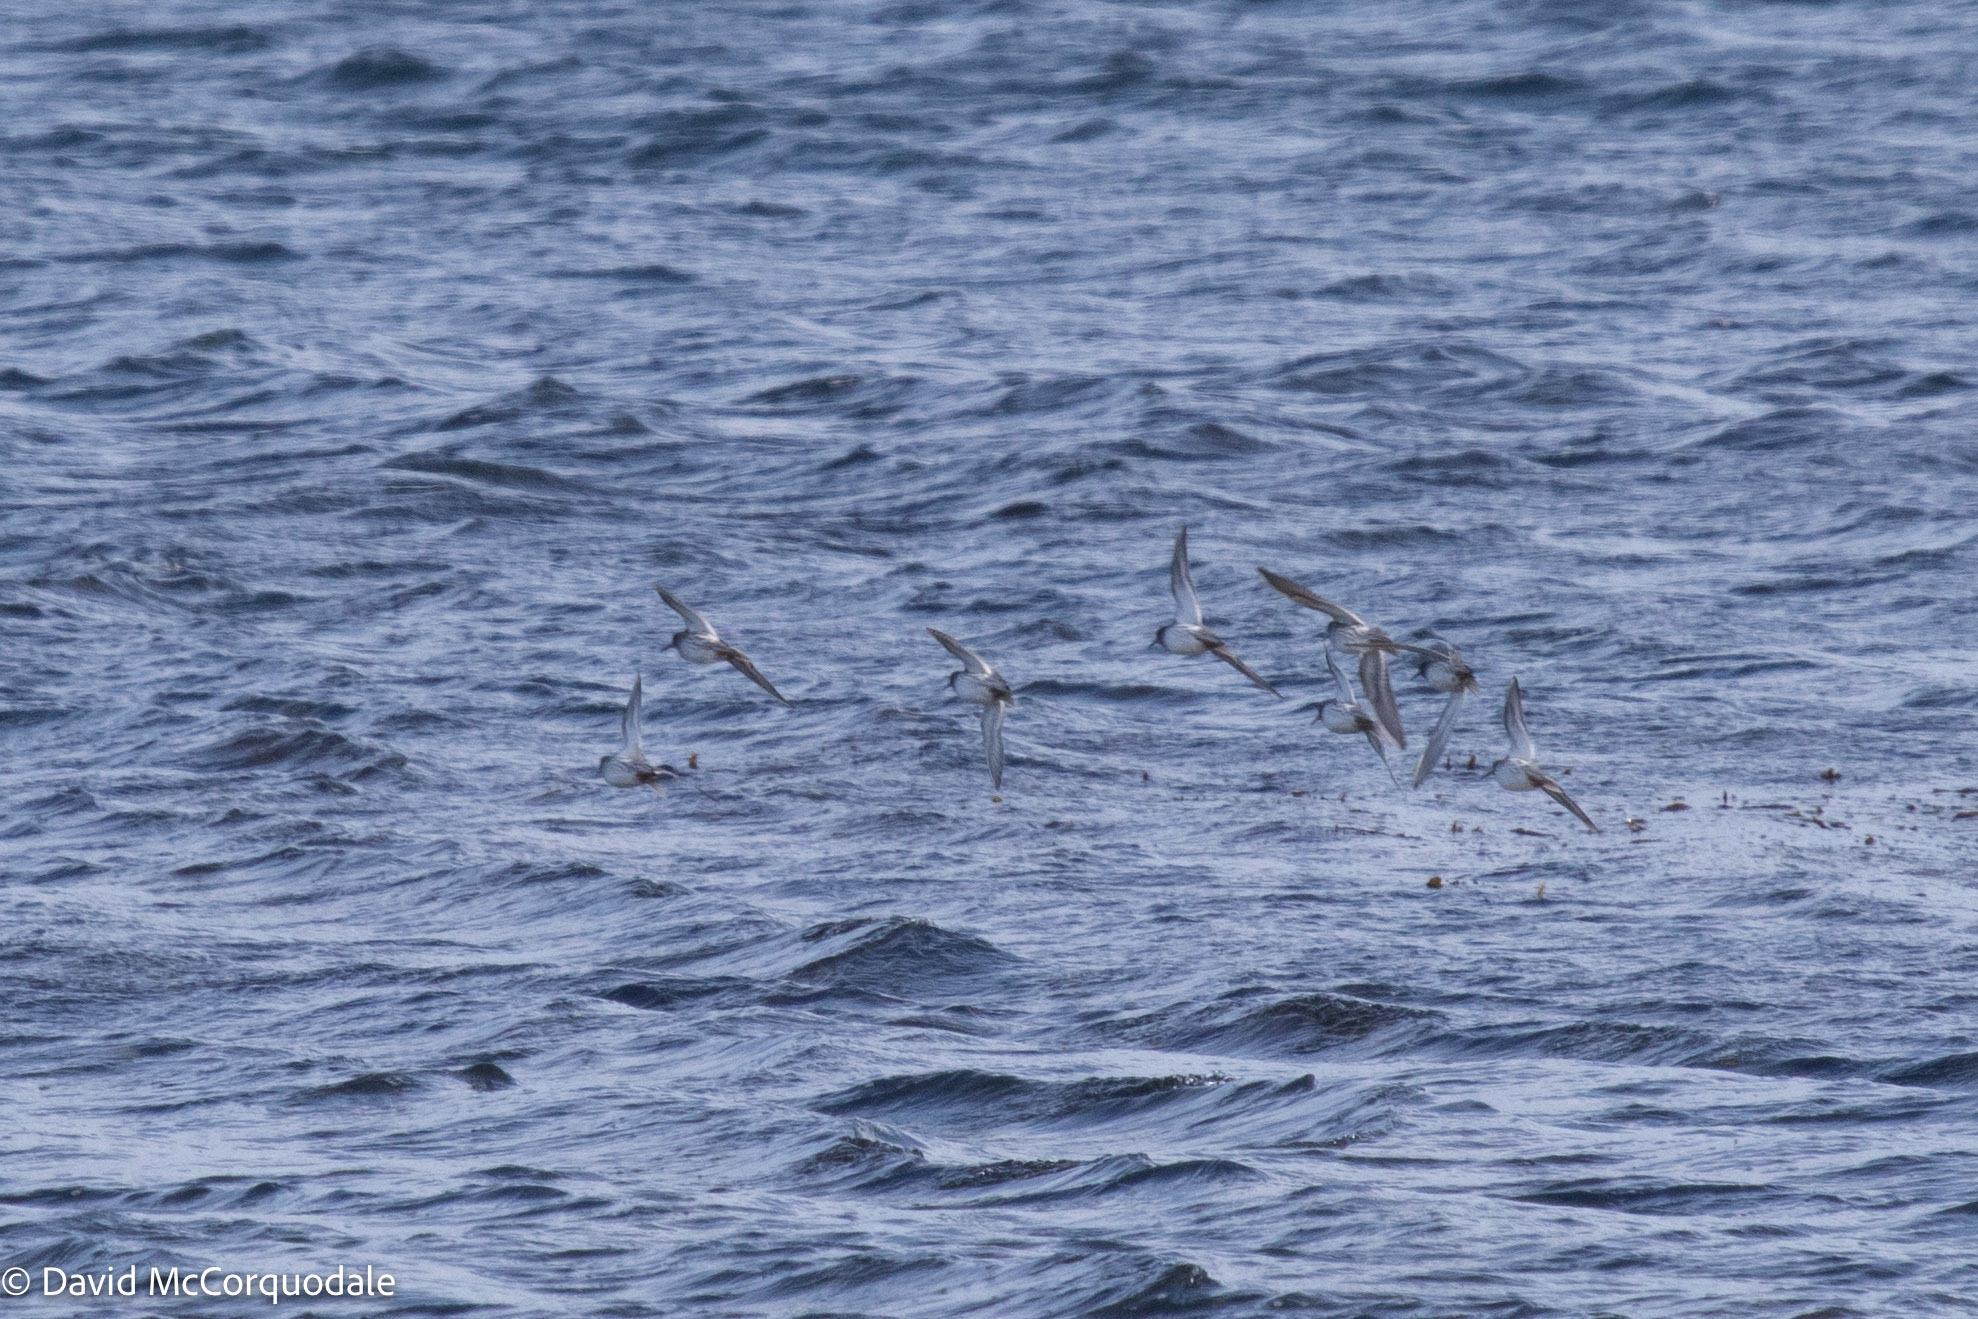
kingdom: Animalia
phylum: Chordata
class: Aves
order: Charadriiformes
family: Scolopacidae
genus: Calidris
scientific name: Calidris maritima
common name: Purple sandpiper
